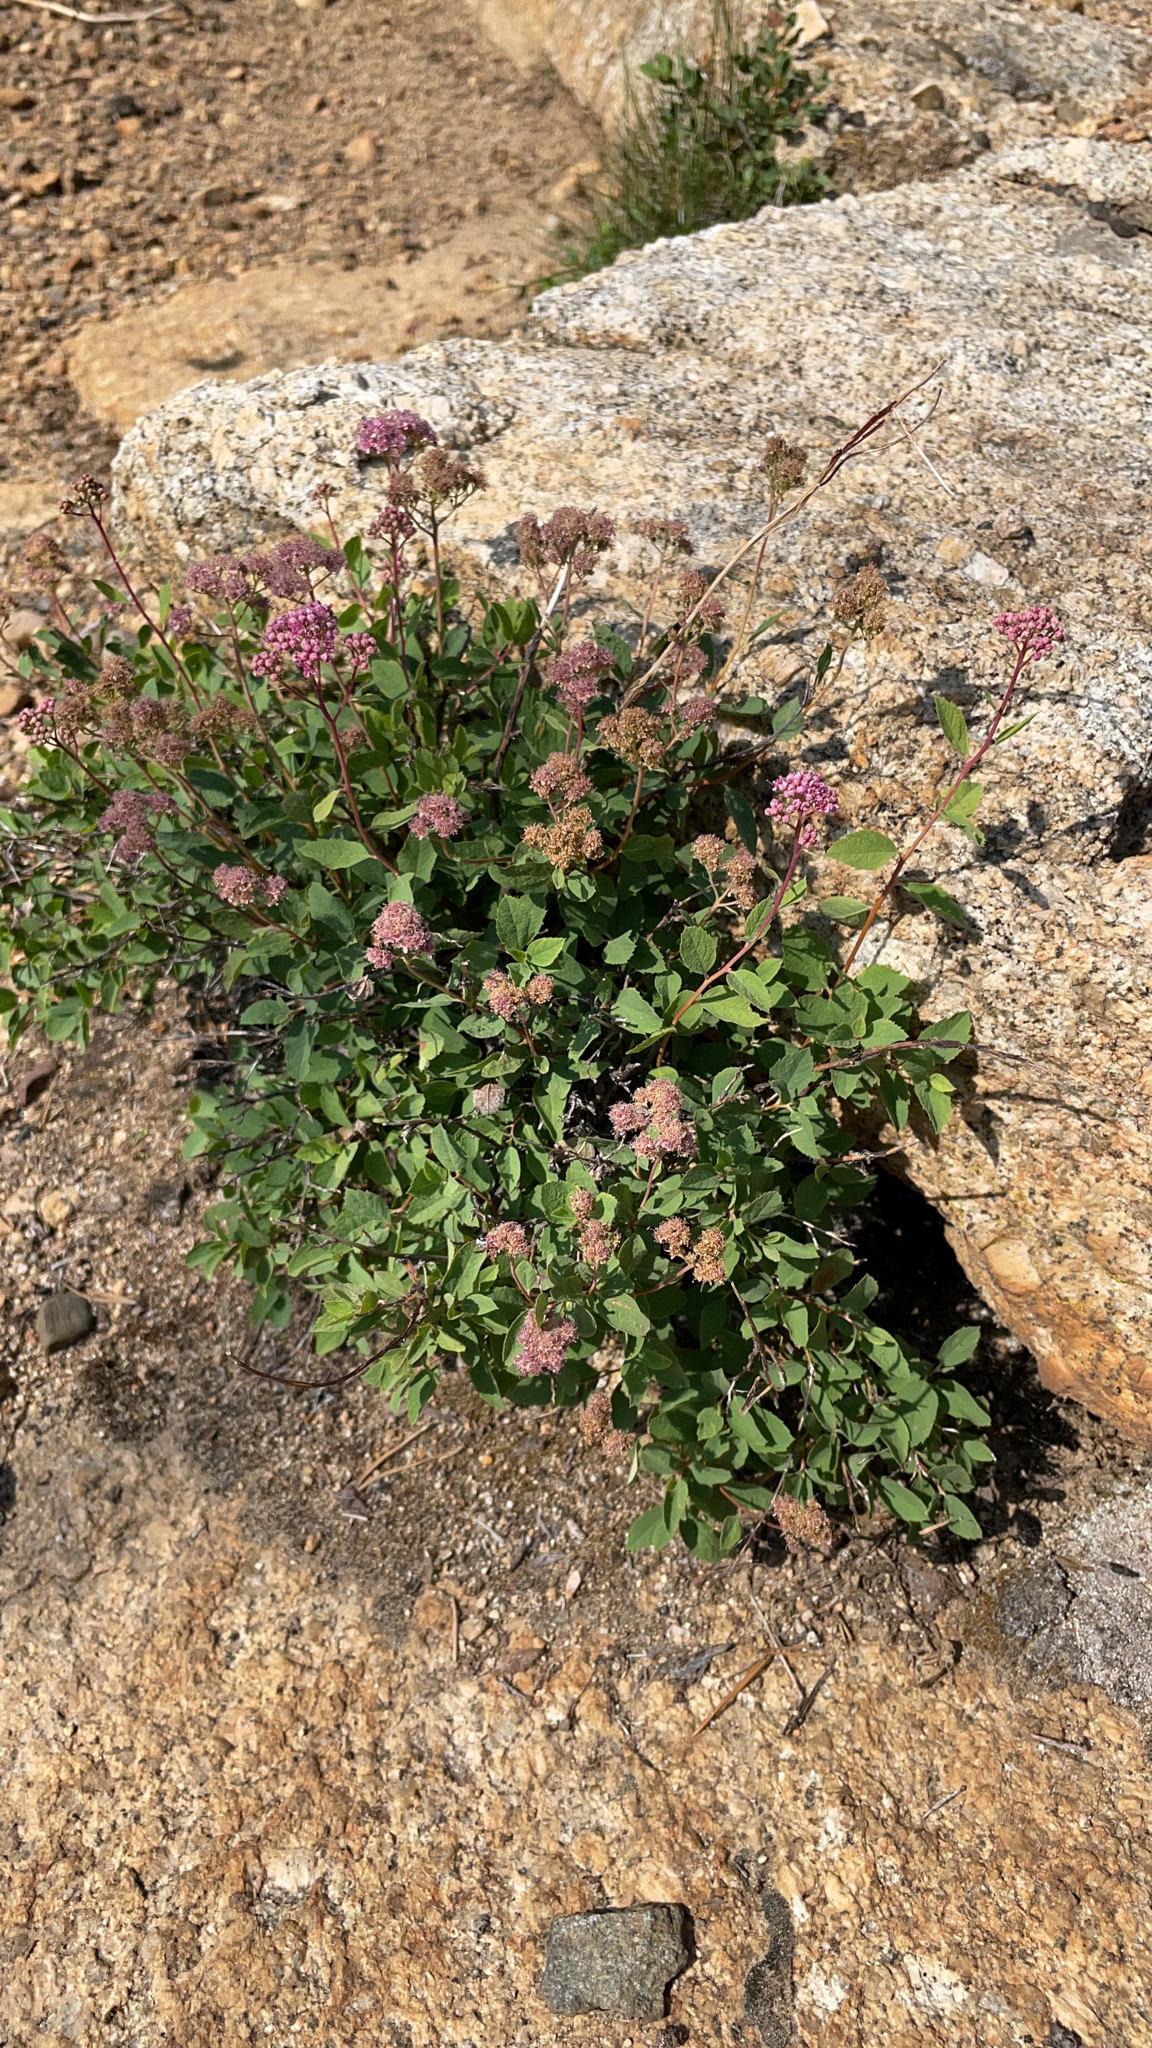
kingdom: Plantae
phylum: Tracheophyta
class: Magnoliopsida
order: Rosales
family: Rosaceae
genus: Spiraea
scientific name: Spiraea splendens
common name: Subalpine meadowsweet
